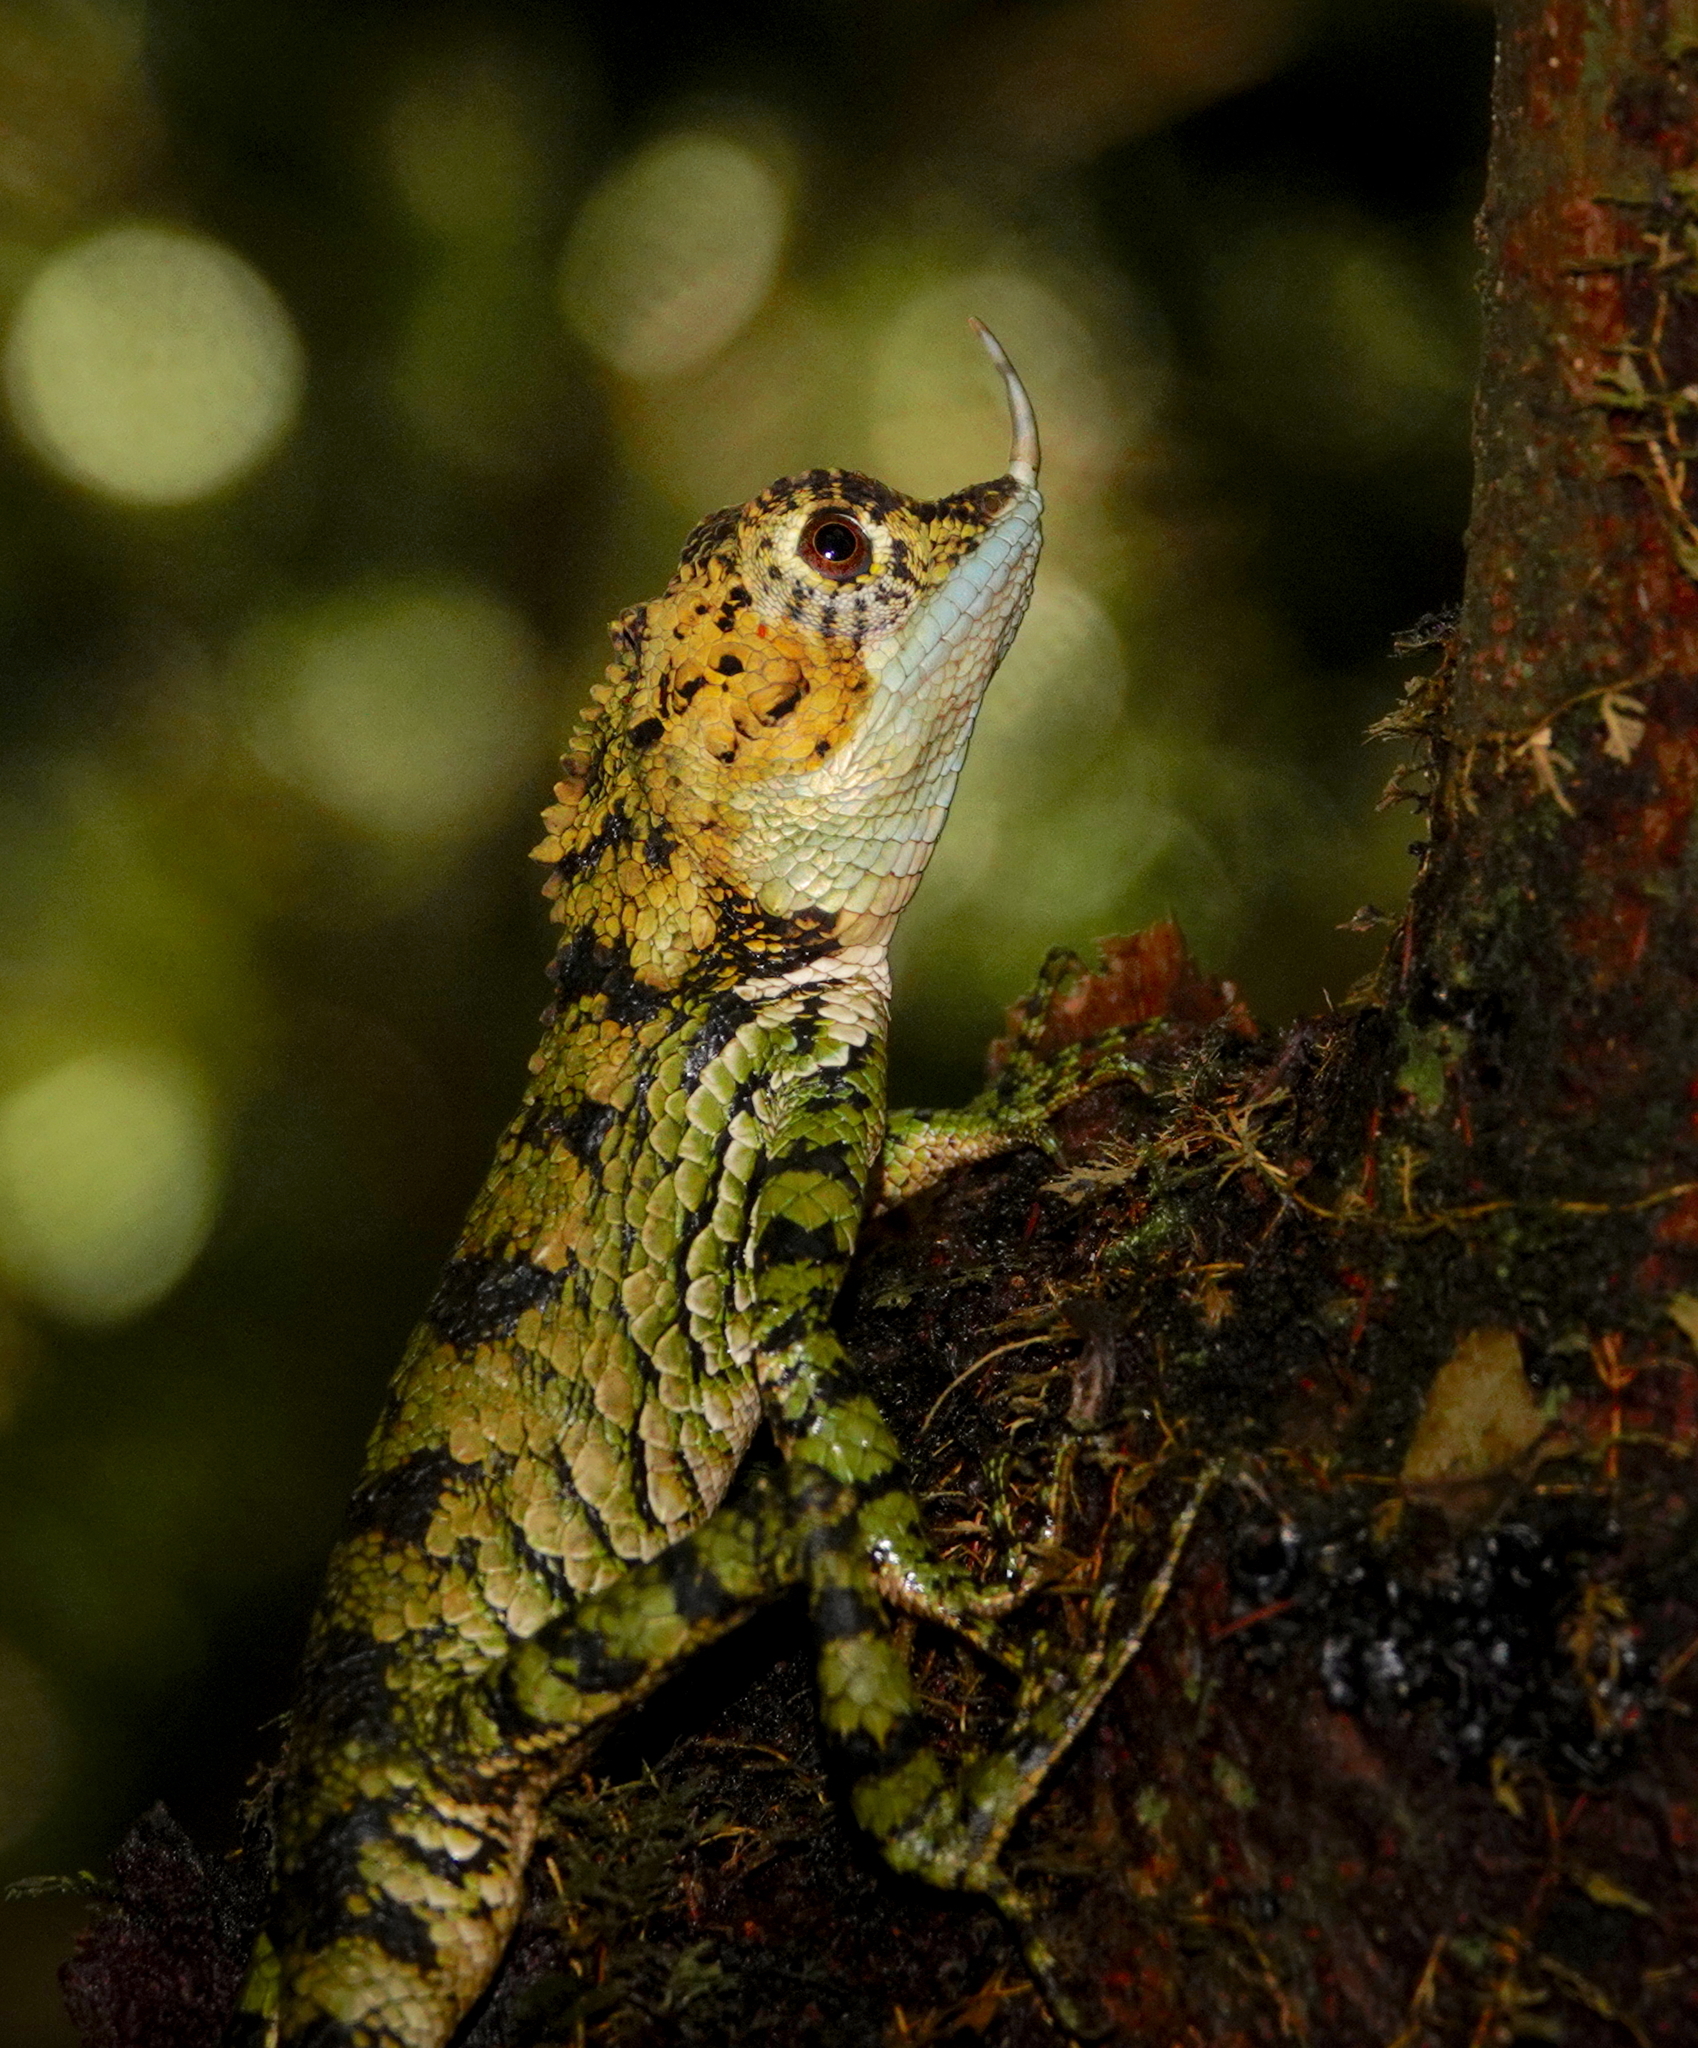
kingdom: Animalia
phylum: Chordata
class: Squamata
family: Agamidae
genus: Ceratophora
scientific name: Ceratophora stoddartii
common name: Mountain horned agama
